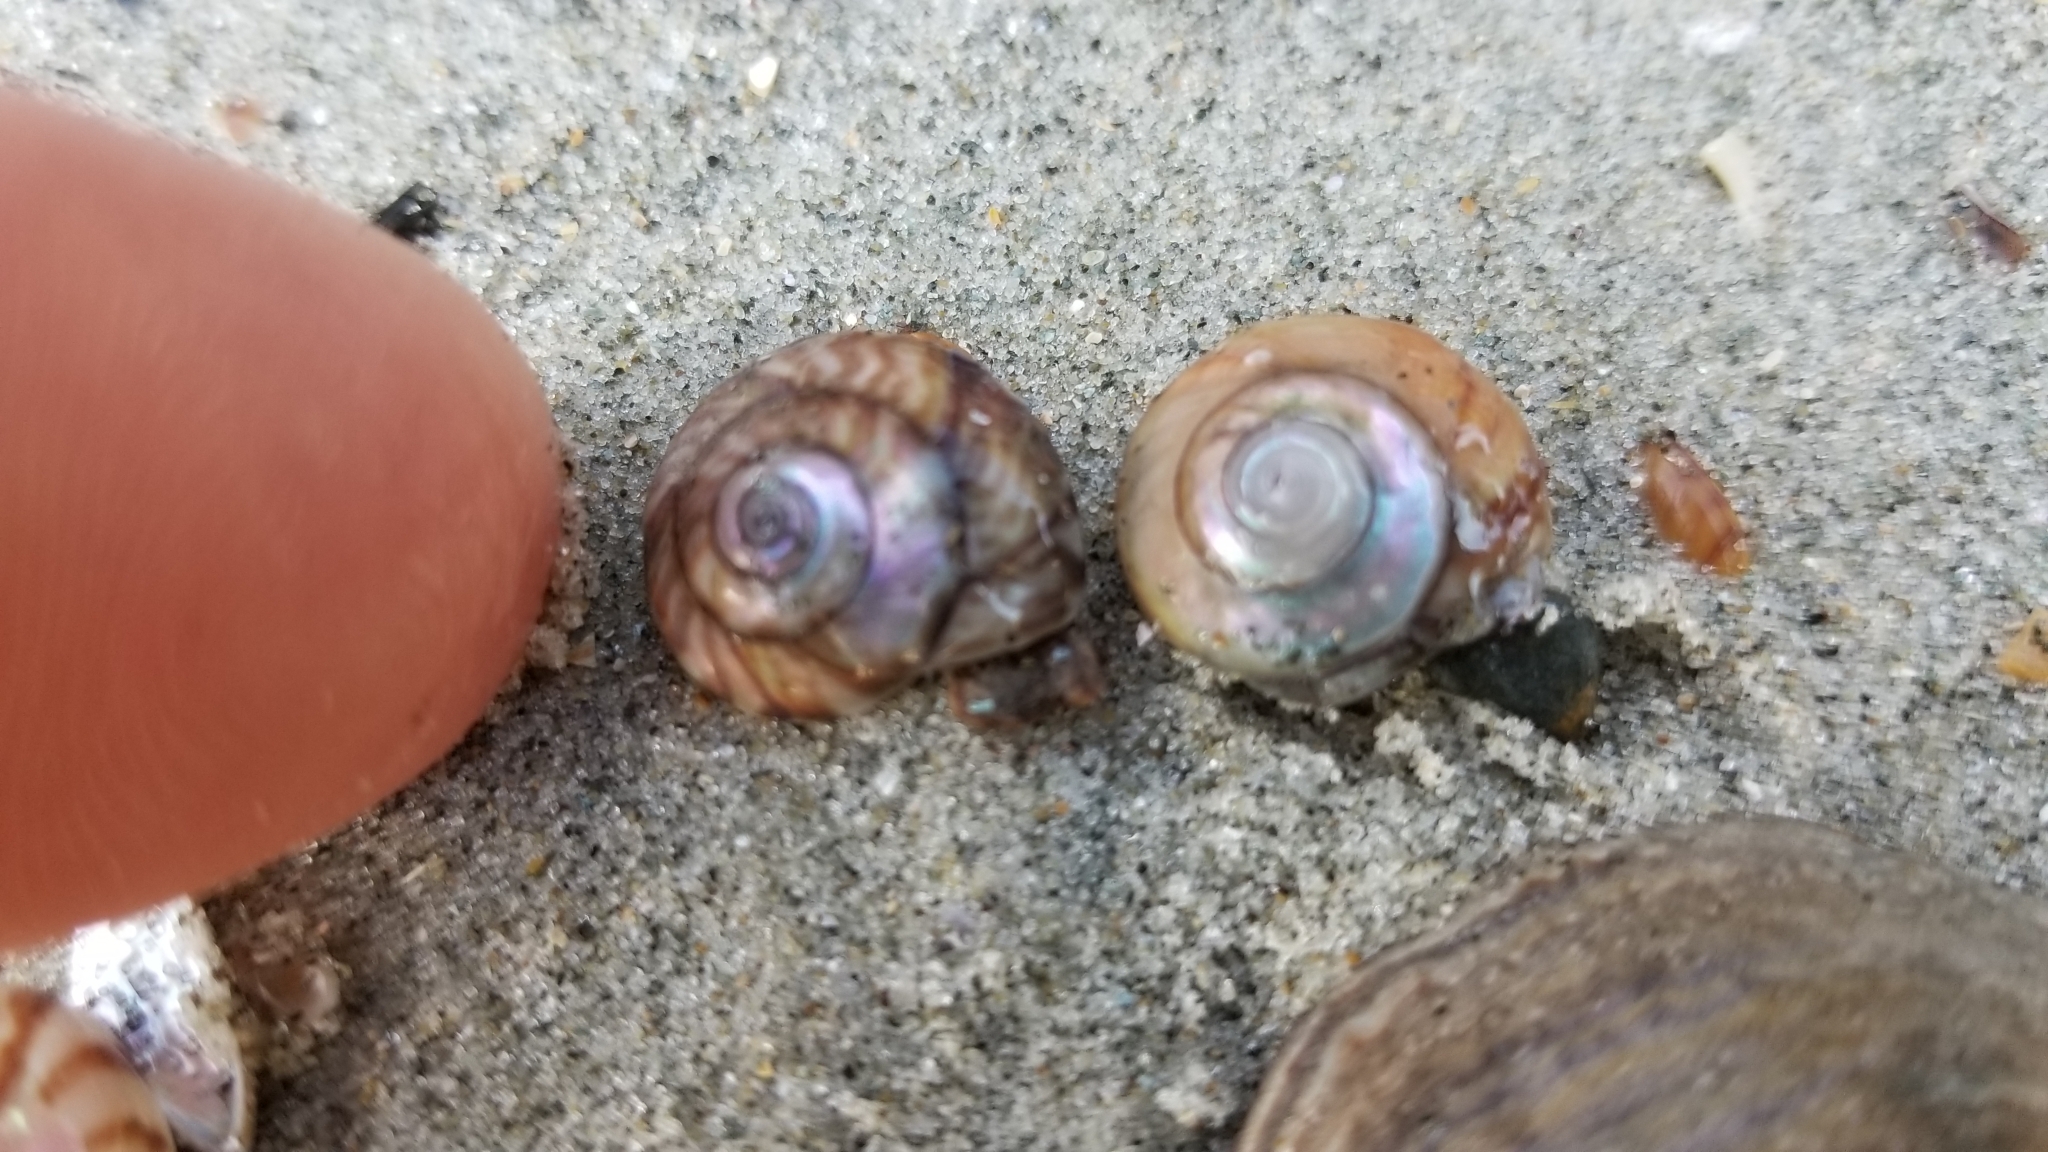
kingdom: Animalia
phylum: Mollusca
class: Gastropoda
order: Trochida
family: Trochidae
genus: Zethalia
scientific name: Zethalia zelandica
